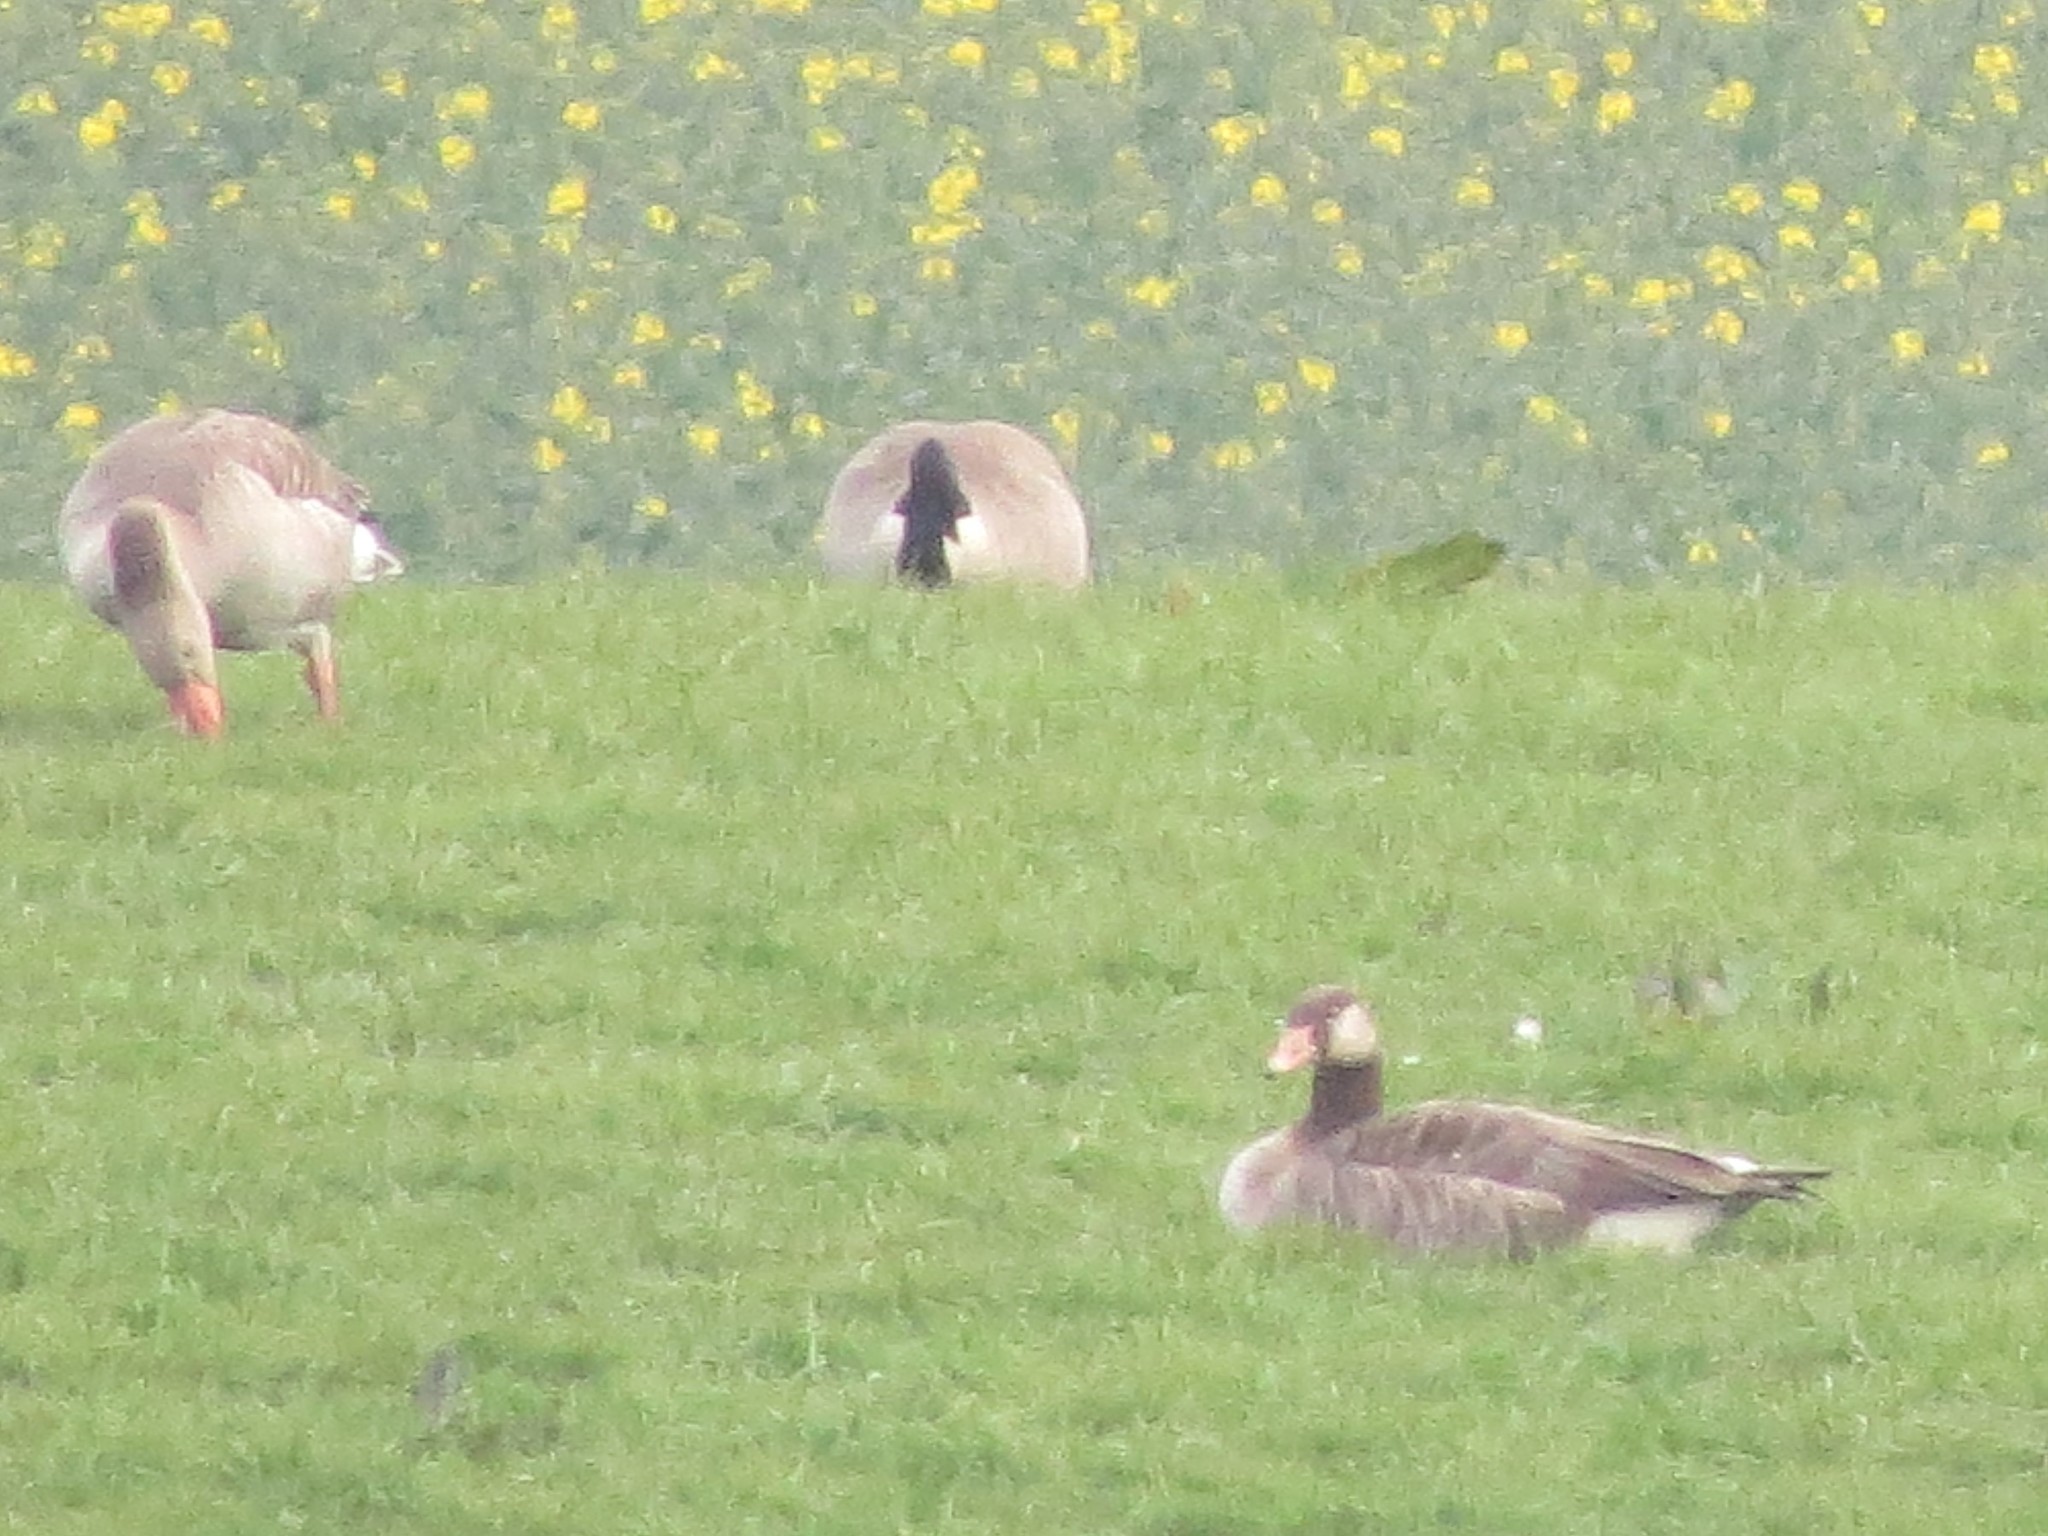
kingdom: Animalia
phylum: Chordata
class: Aves
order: Anseriformes
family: Anatidae
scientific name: Anatidae
